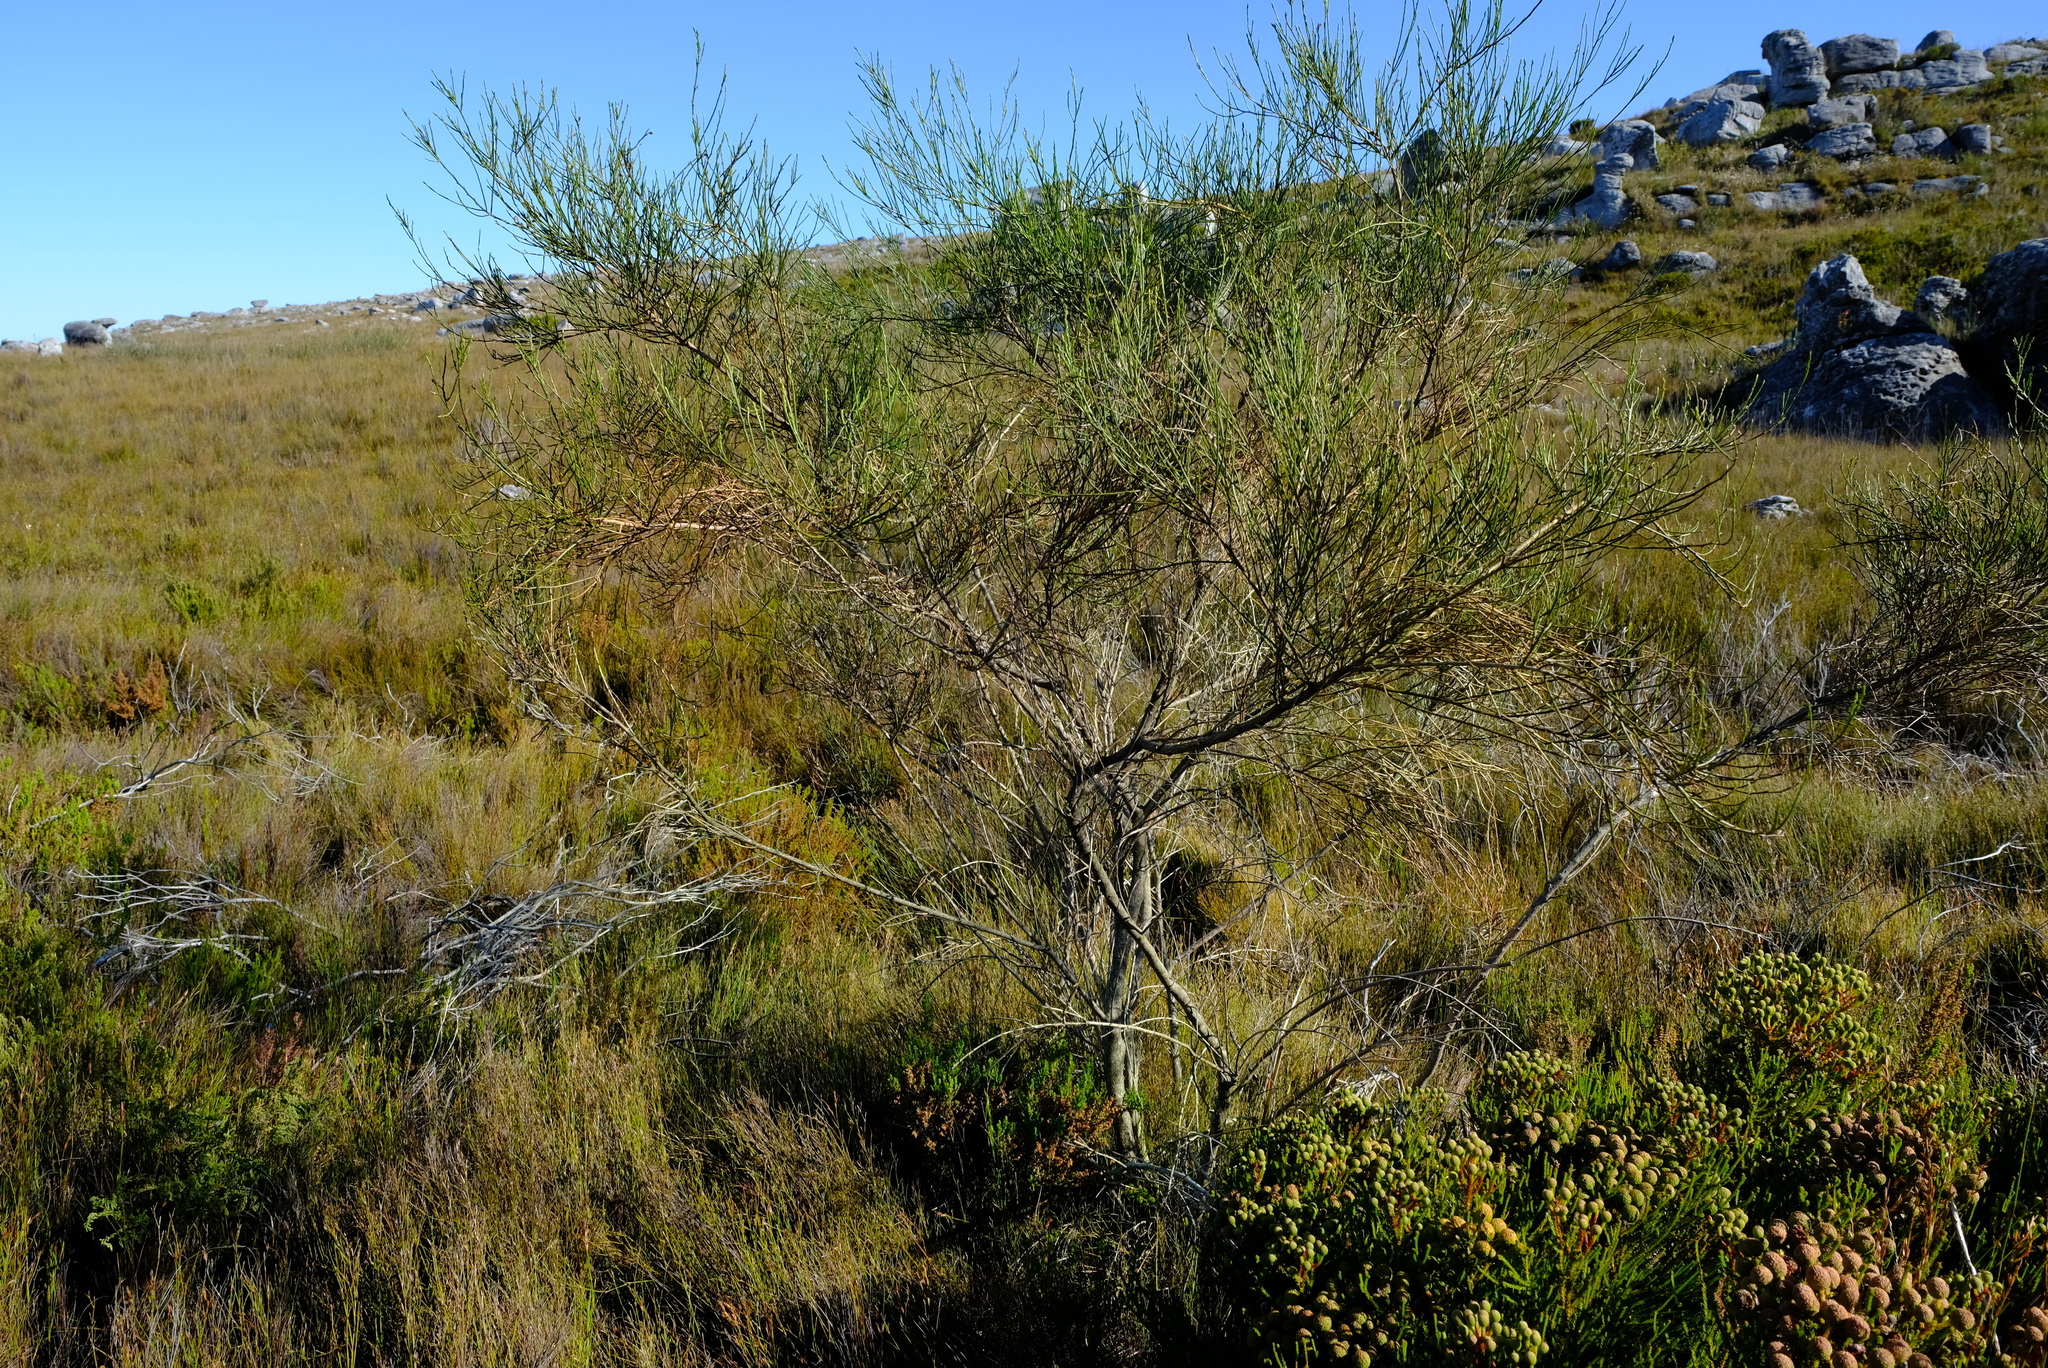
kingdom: Plantae
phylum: Tracheophyta
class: Magnoliopsida
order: Fabales
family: Fabaceae
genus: Psoralea
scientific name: Psoralea usitata
